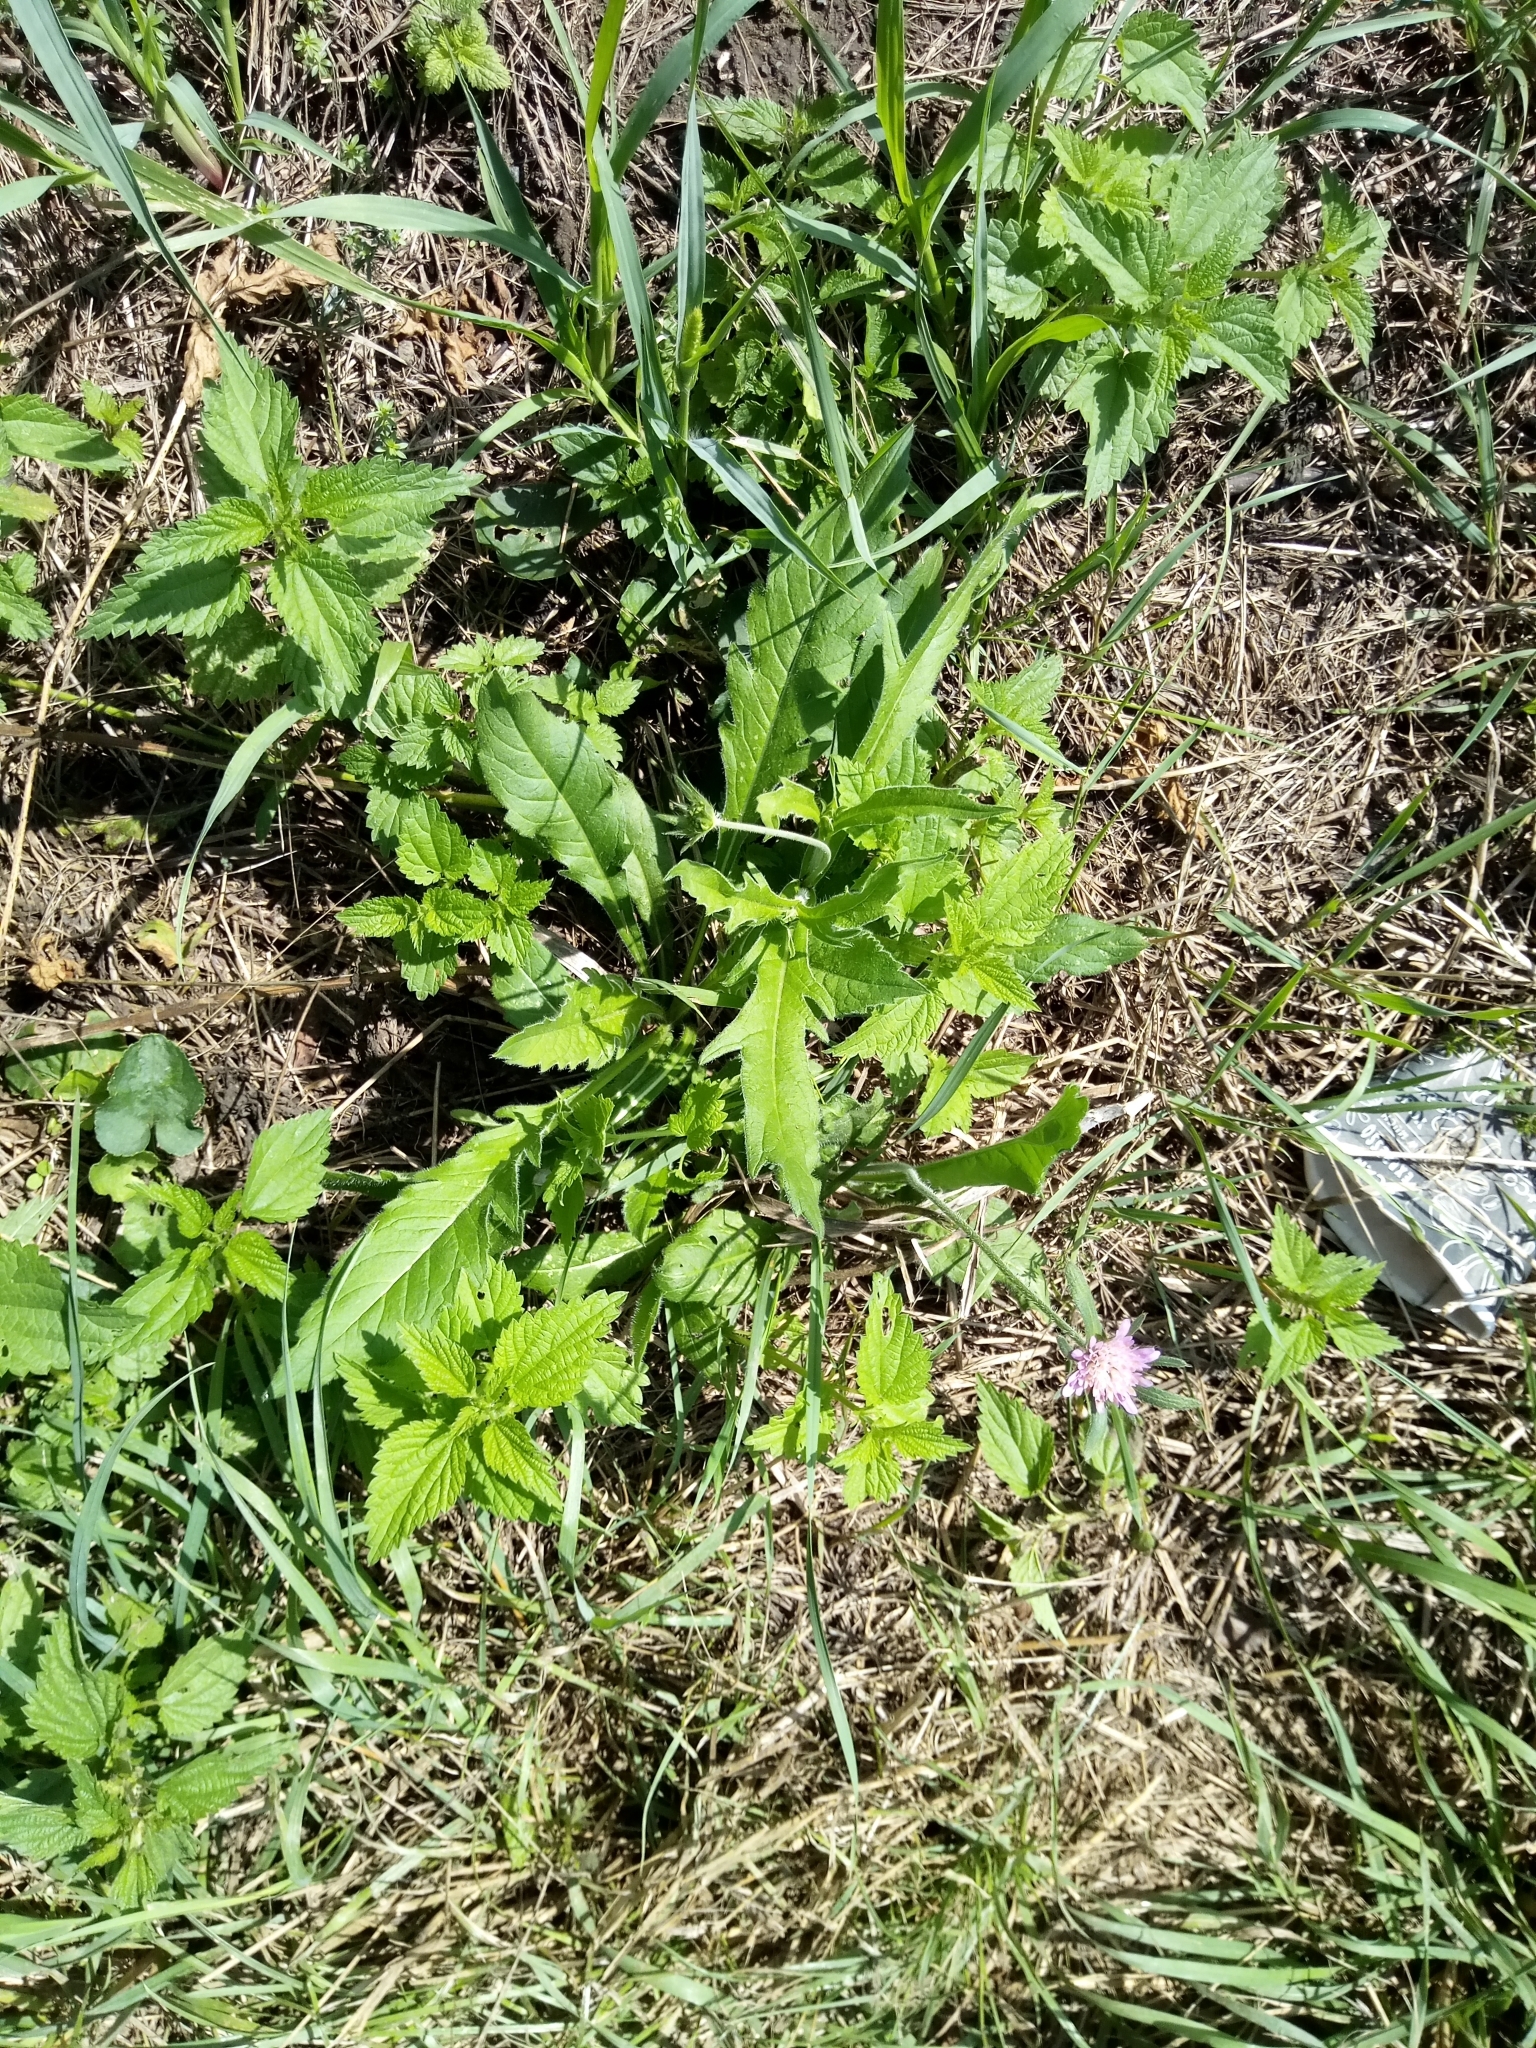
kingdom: Plantae
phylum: Tracheophyta
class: Magnoliopsida
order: Dipsacales
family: Caprifoliaceae
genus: Knautia
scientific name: Knautia arvensis
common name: Field scabiosa
